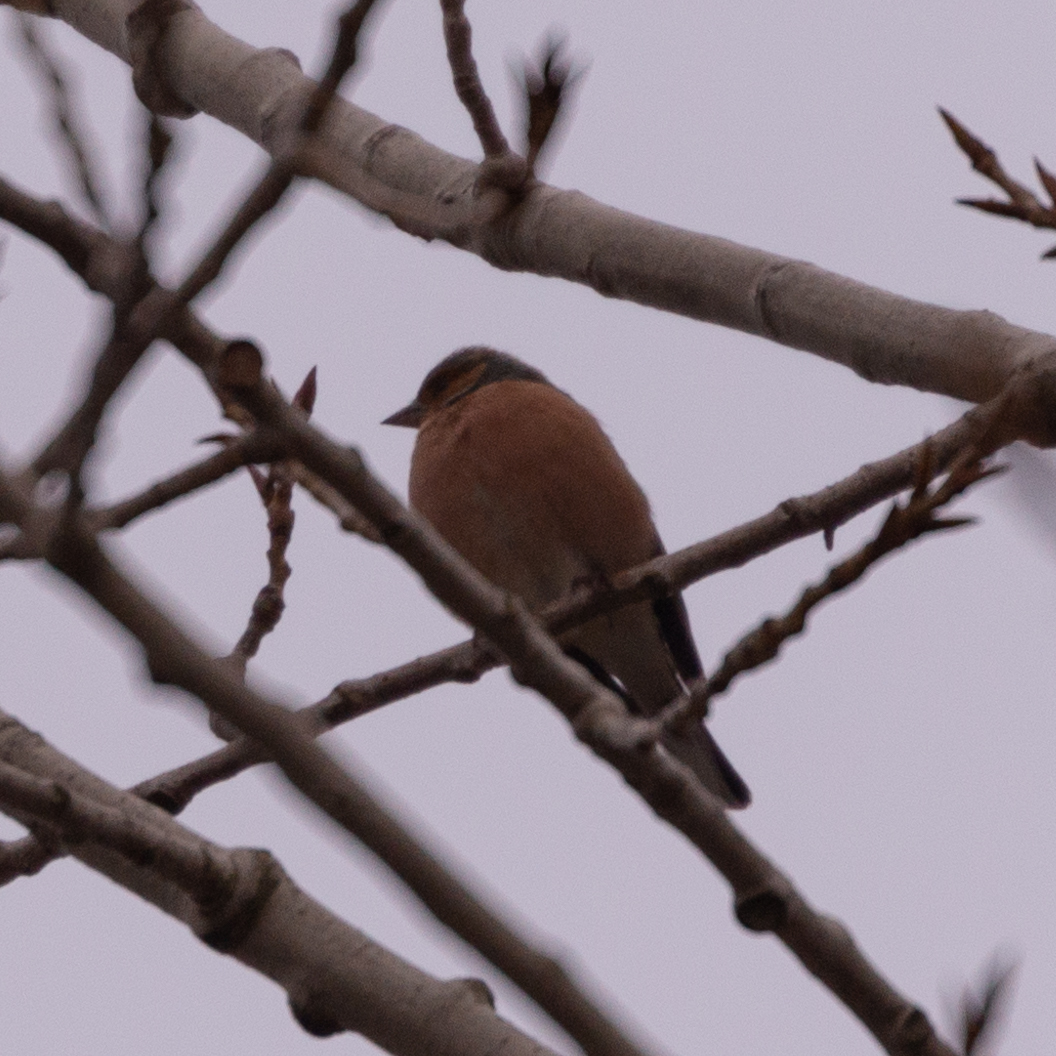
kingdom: Animalia
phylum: Chordata
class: Aves
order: Passeriformes
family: Fringillidae
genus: Fringilla
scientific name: Fringilla coelebs
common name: Common chaffinch
